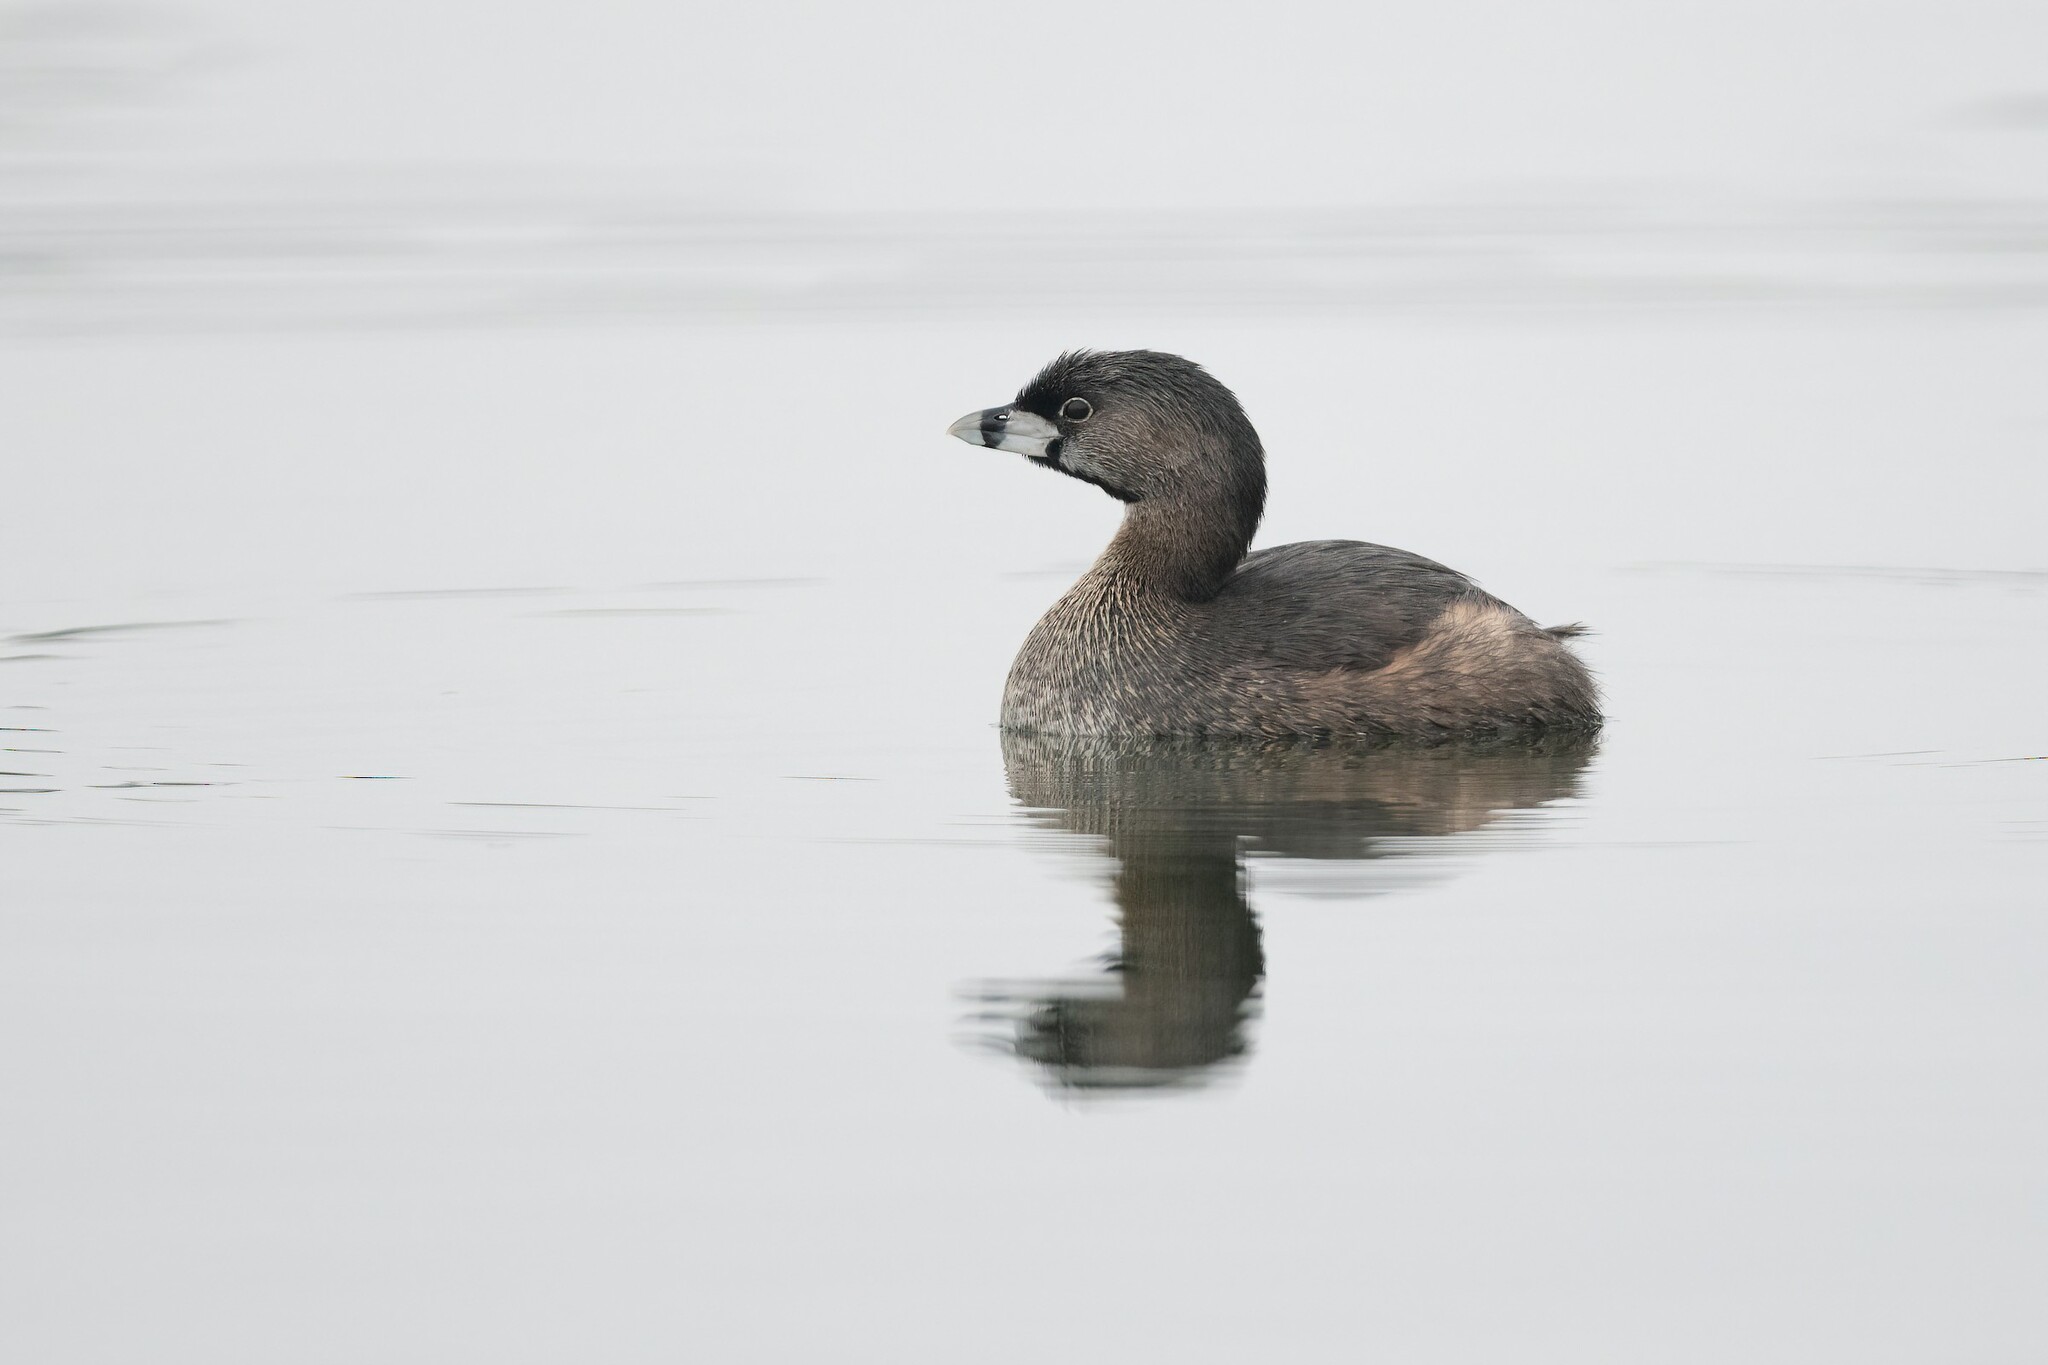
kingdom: Animalia
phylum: Chordata
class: Aves
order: Podicipediformes
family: Podicipedidae
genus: Podilymbus
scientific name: Podilymbus podiceps
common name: Pied-billed grebe
